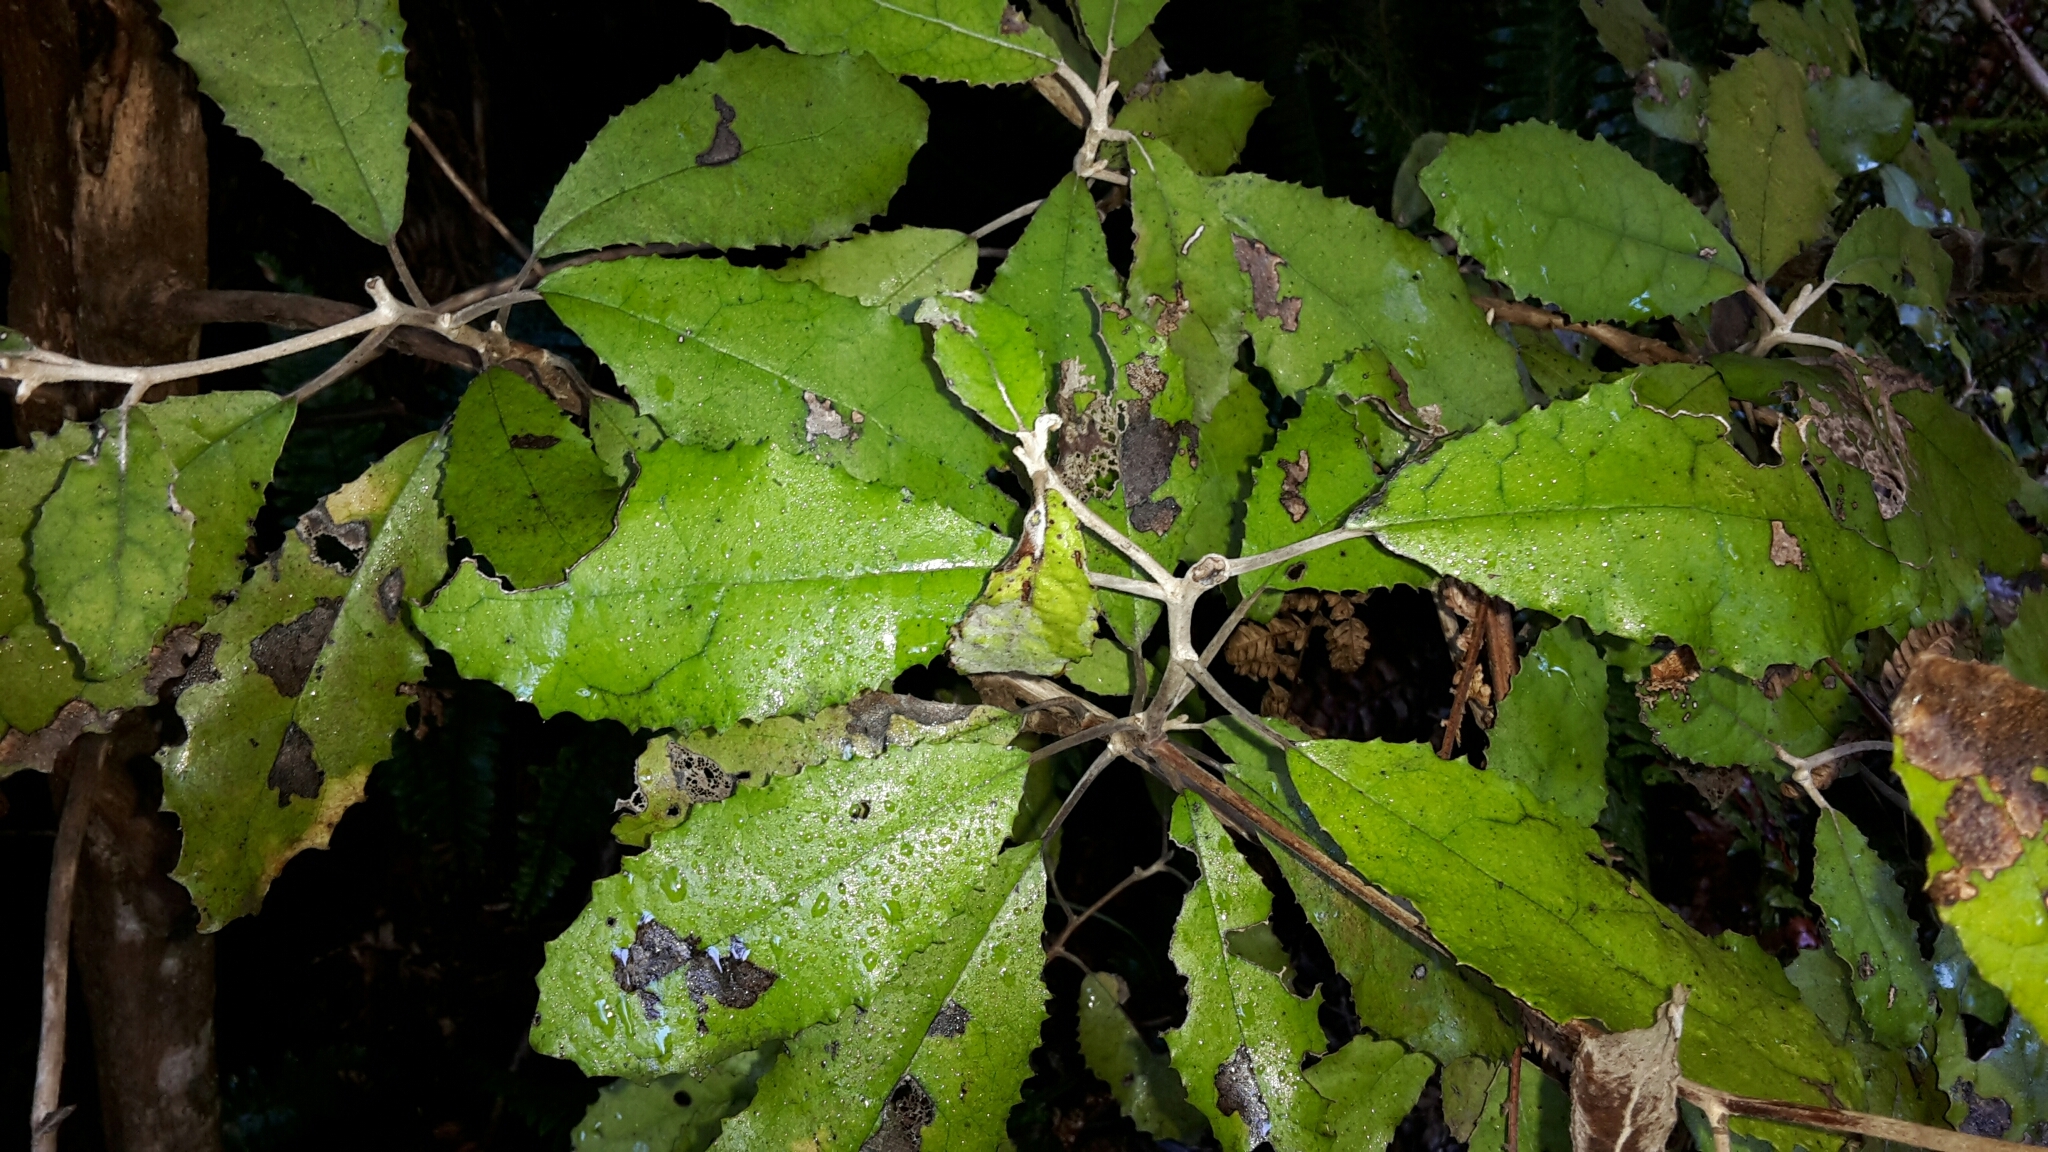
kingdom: Plantae
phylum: Tracheophyta
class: Magnoliopsida
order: Asterales
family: Asteraceae
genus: Olearia
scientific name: Olearia rani
